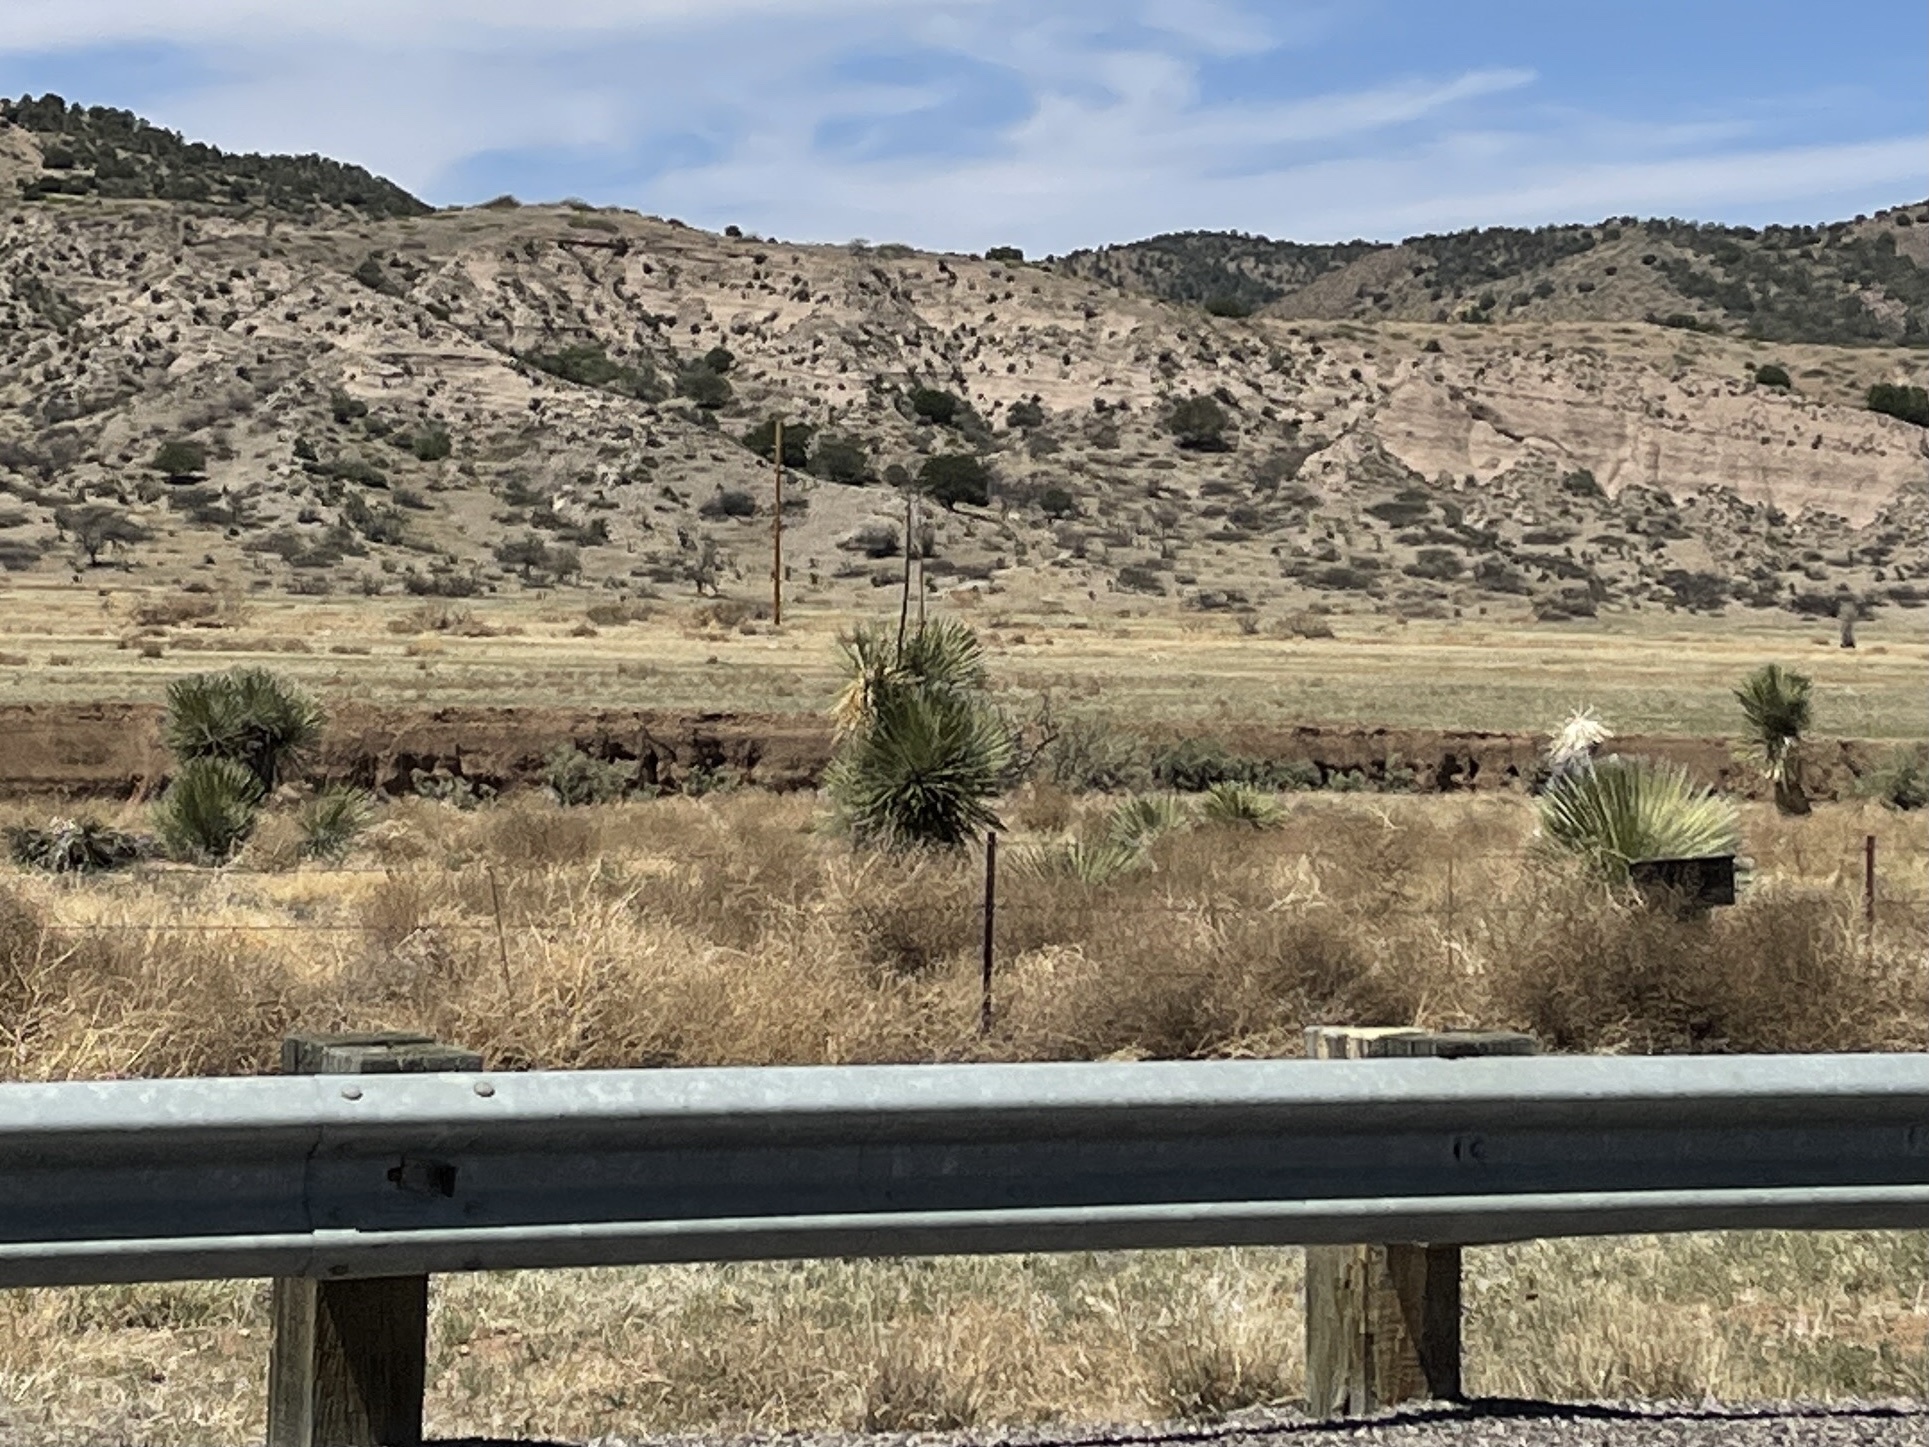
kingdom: Plantae
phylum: Tracheophyta
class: Liliopsida
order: Asparagales
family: Asparagaceae
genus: Yucca
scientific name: Yucca elata
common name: Palmella
